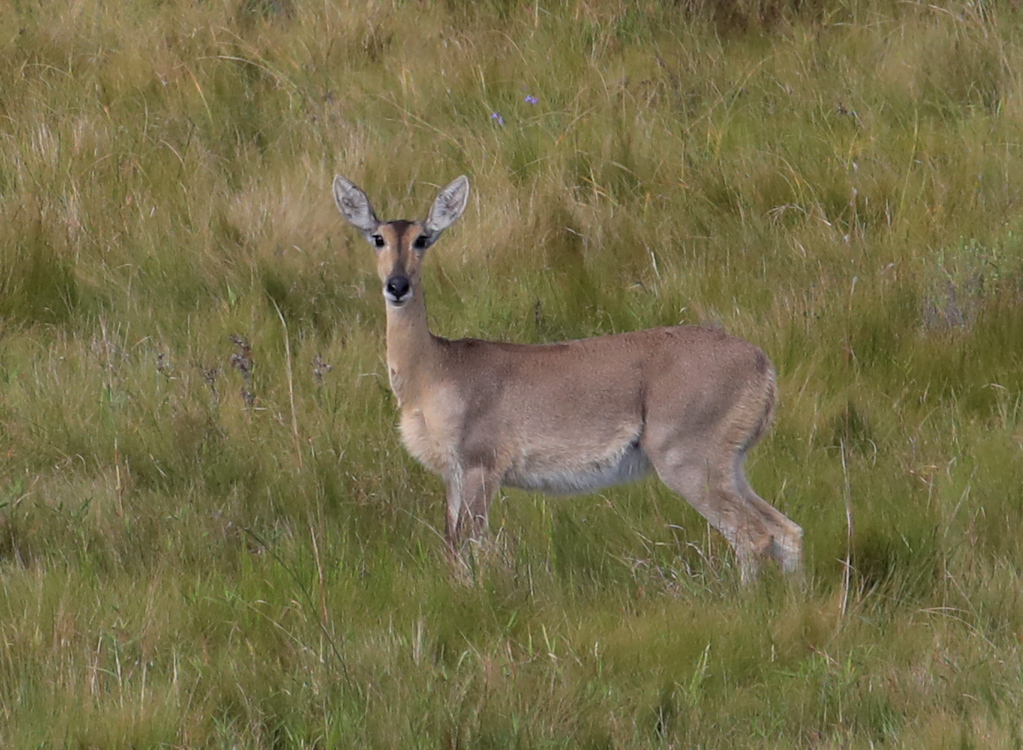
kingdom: Animalia
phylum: Chordata
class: Mammalia
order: Artiodactyla
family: Bovidae
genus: Redunca
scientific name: Redunca arundinum
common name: Southern reedbuck
